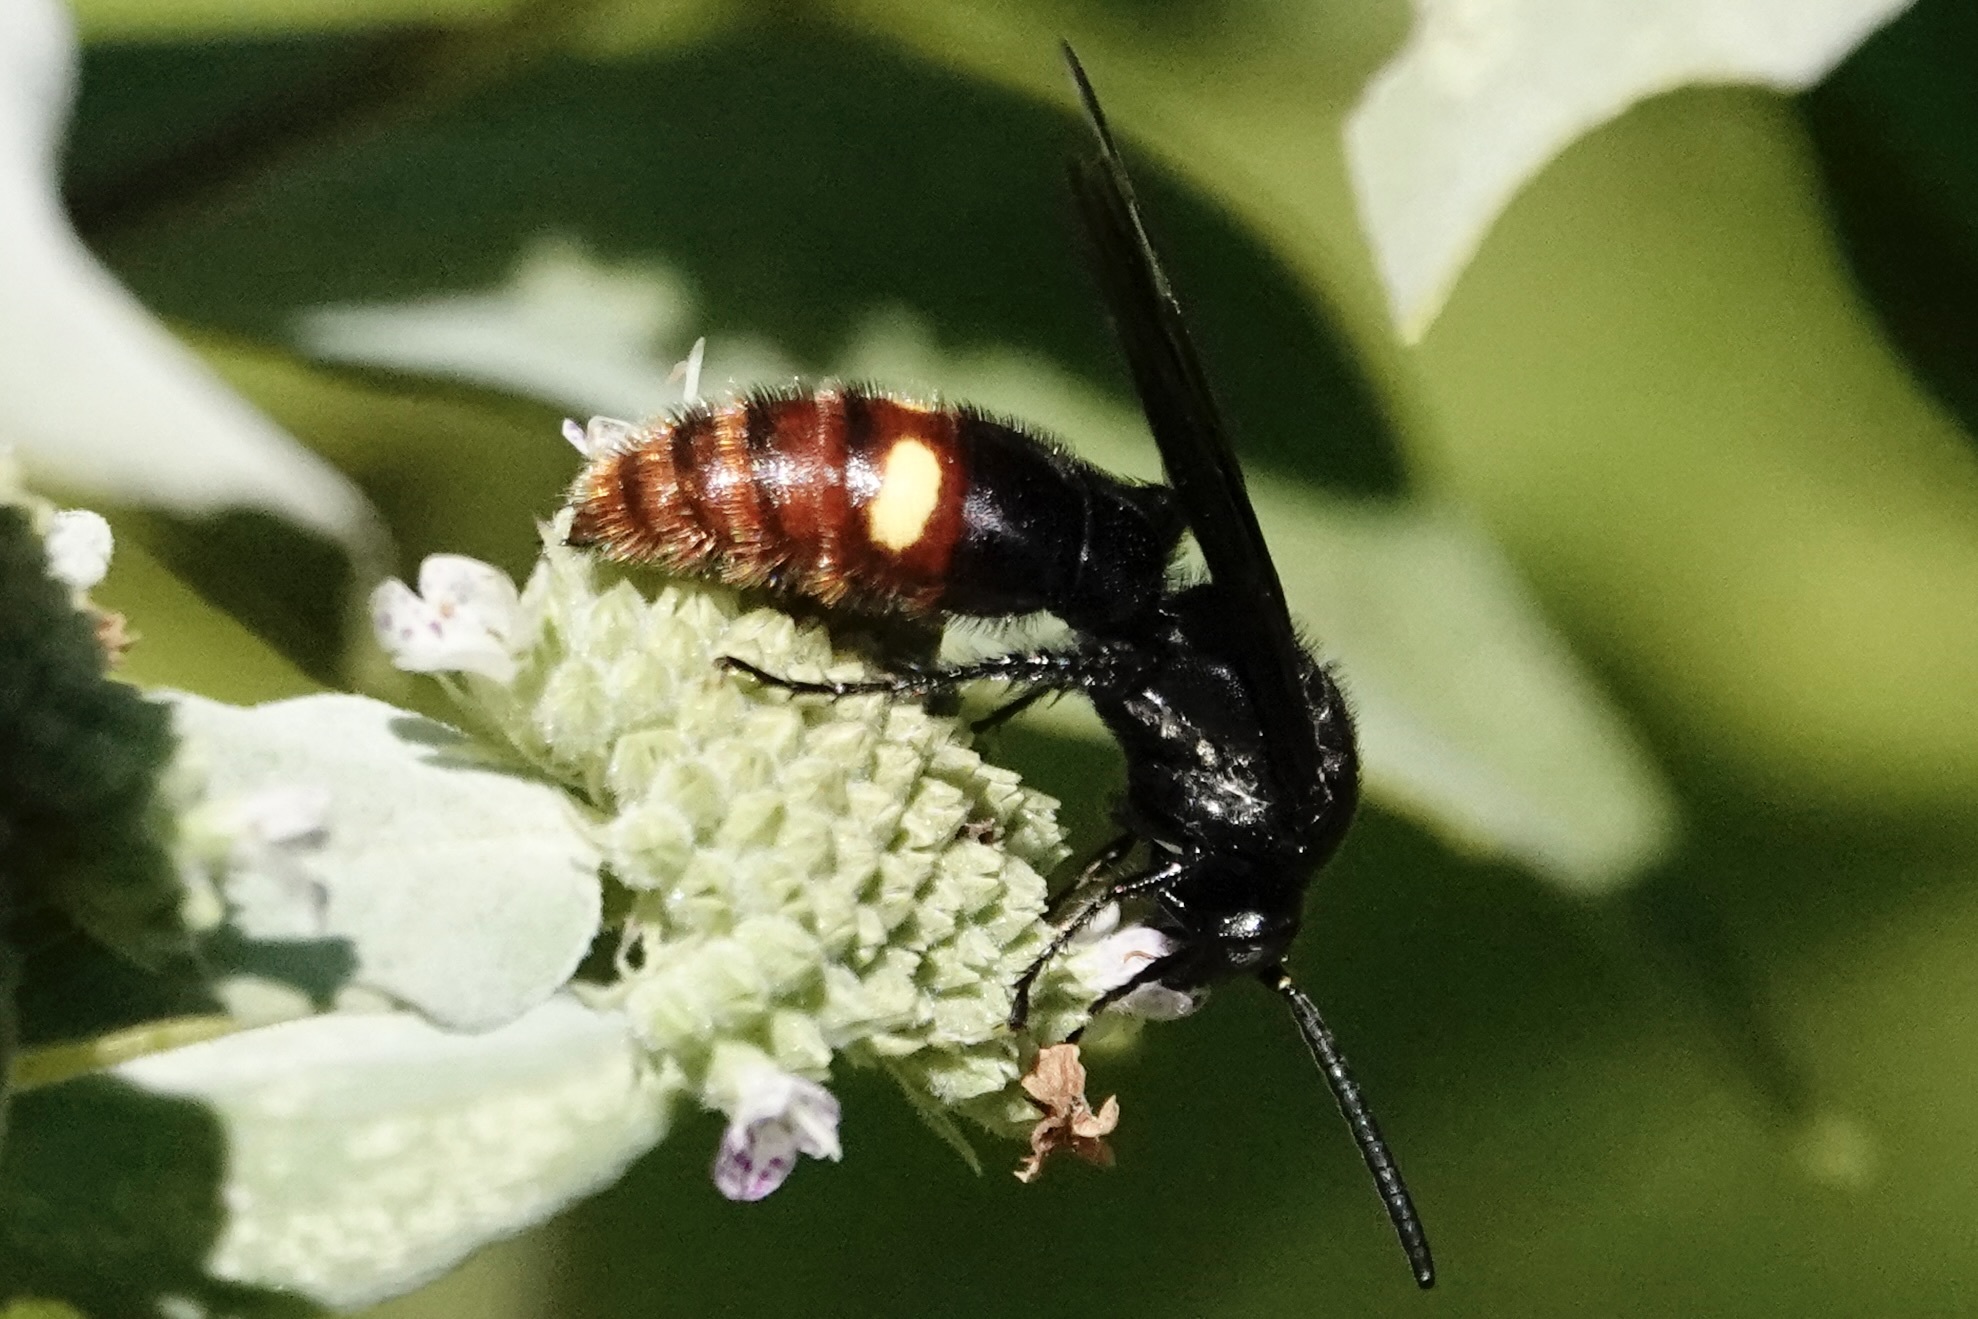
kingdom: Animalia
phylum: Arthropoda
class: Insecta
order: Hymenoptera
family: Scoliidae
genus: Scolia
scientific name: Scolia dubia
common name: Blue-winged scoliid wasp
